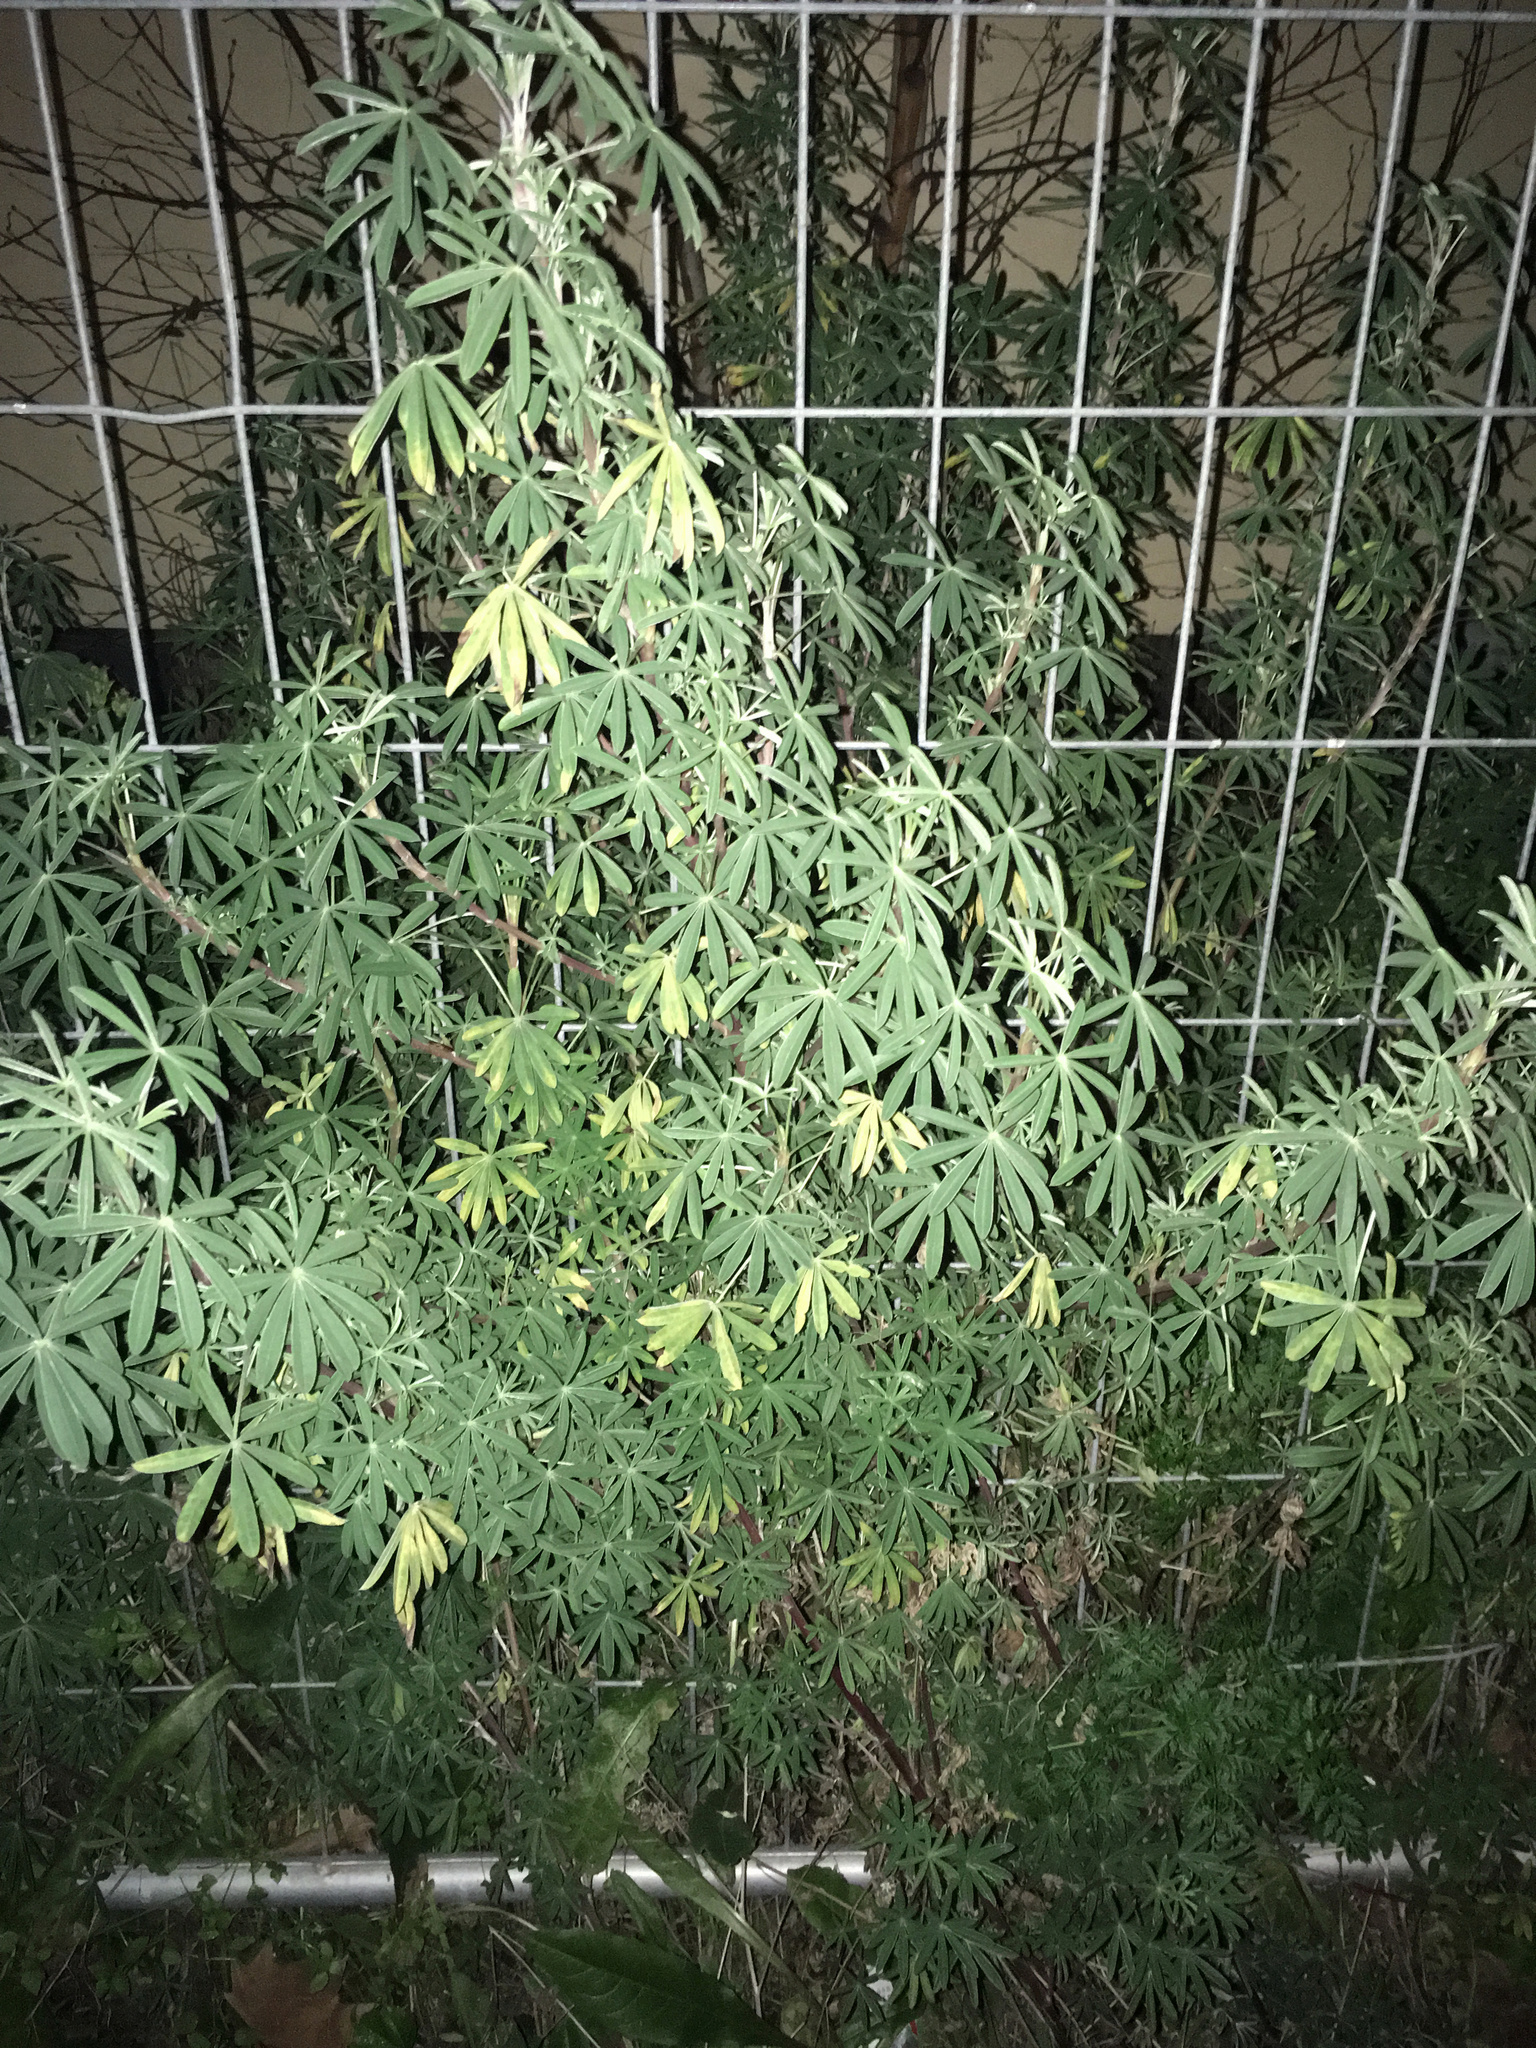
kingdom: Plantae
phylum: Tracheophyta
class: Magnoliopsida
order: Fabales
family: Fabaceae
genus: Lupinus
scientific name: Lupinus arboreus
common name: Yellow bush lupine
